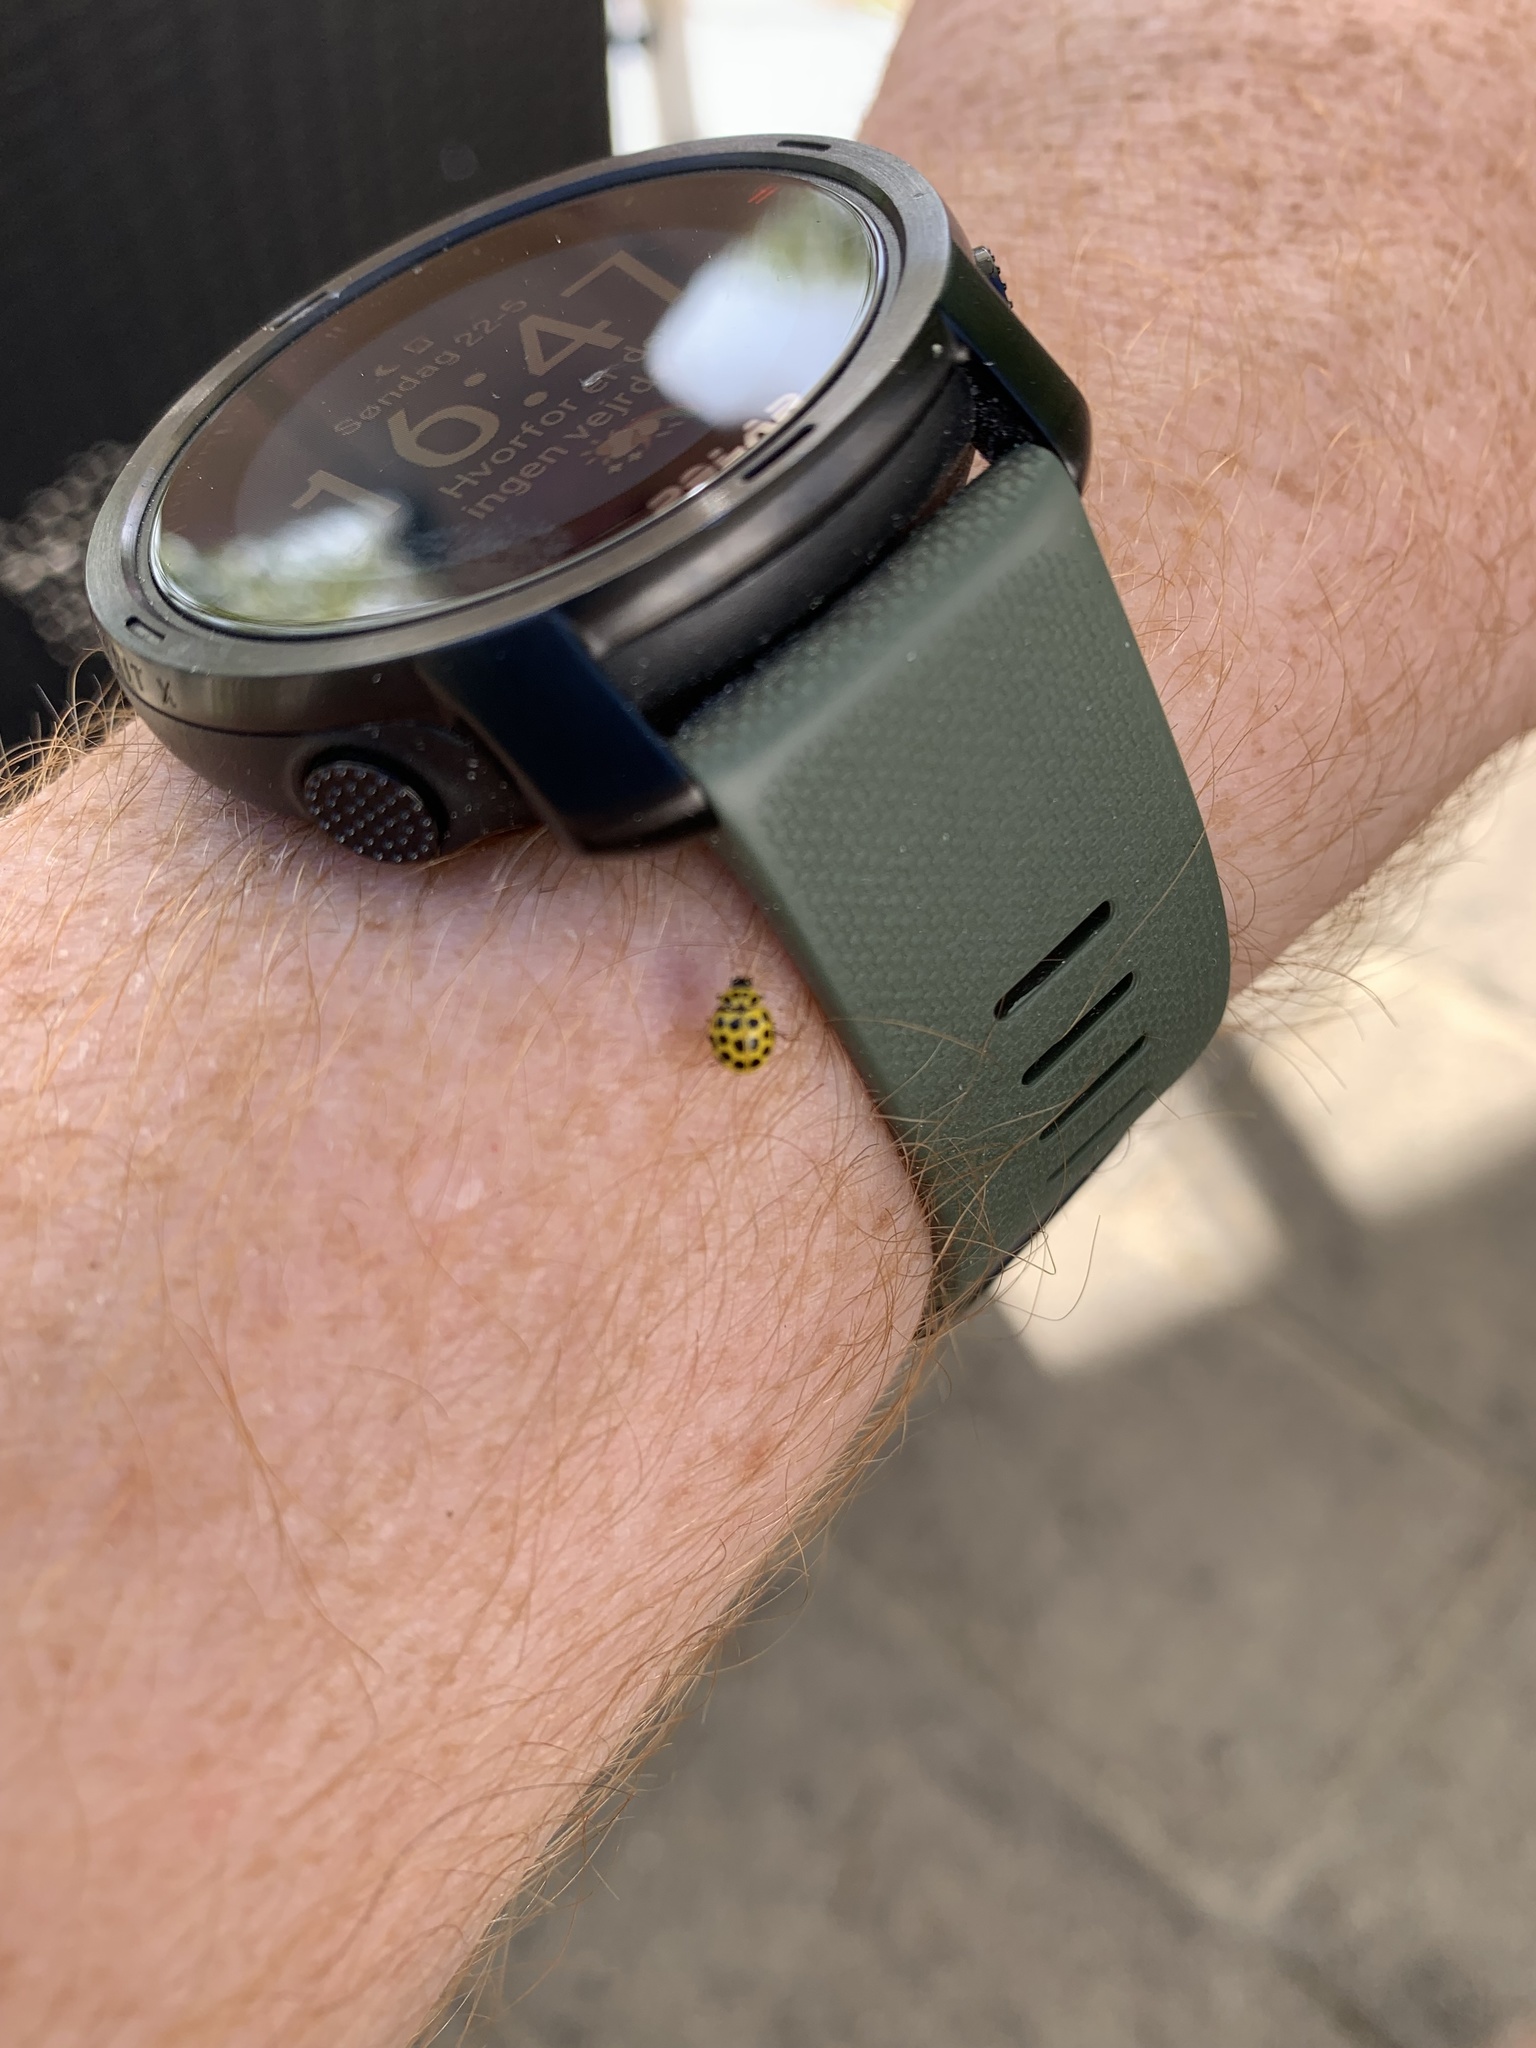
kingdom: Animalia
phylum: Arthropoda
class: Insecta
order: Coleoptera
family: Coccinellidae
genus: Psyllobora
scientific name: Psyllobora vigintiduopunctata
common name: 22-spot ladybird
